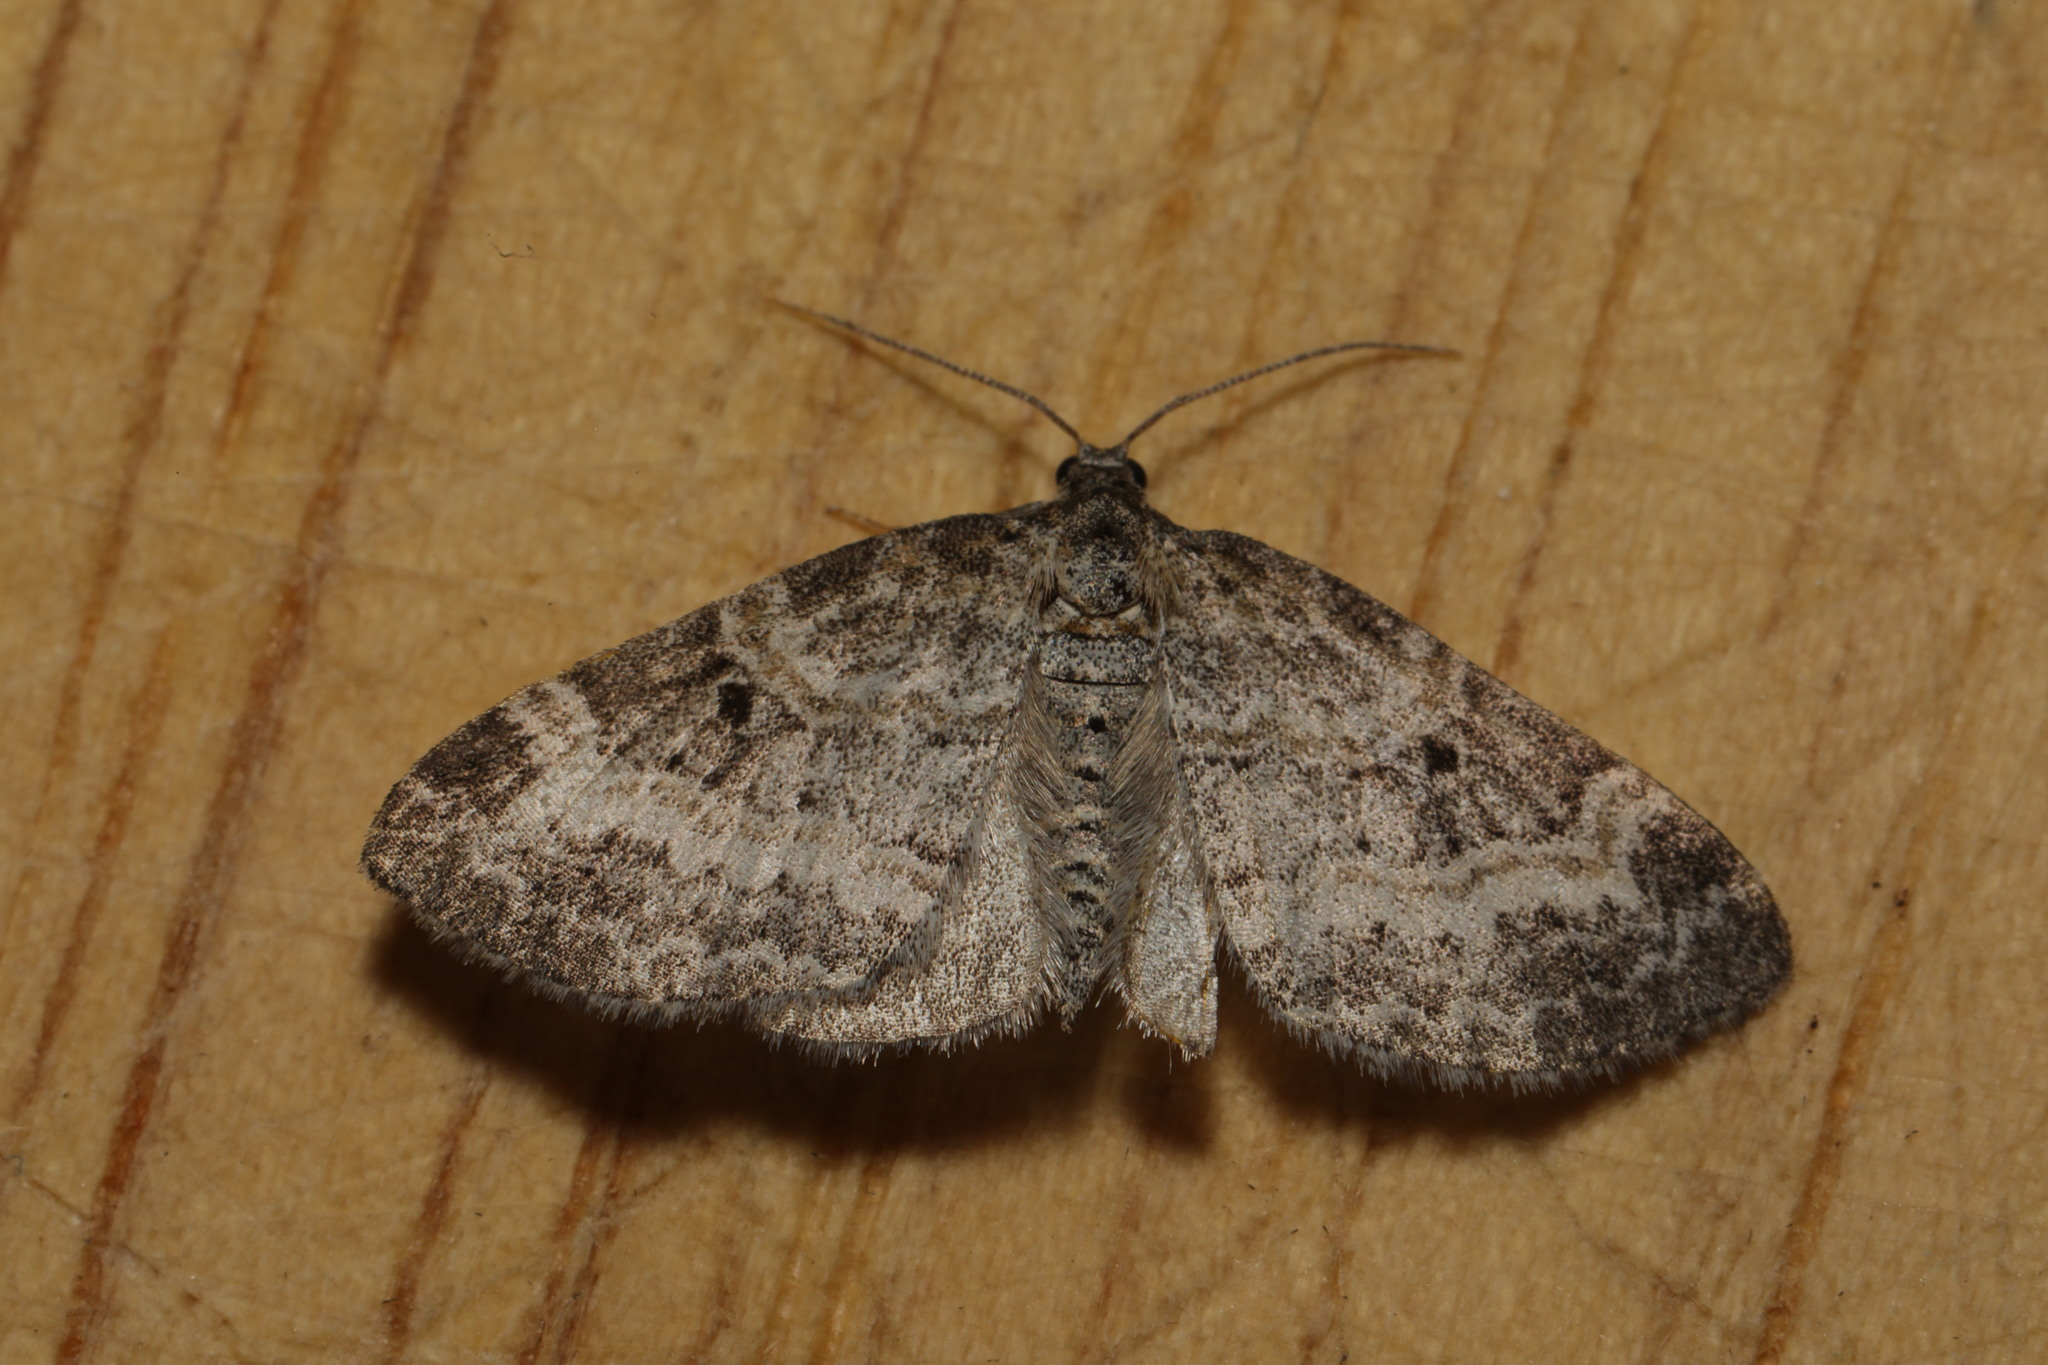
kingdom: Animalia
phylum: Arthropoda
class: Insecta
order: Lepidoptera
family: Geometridae
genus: Pterapherapteryx
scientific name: Pterapherapteryx sexalata
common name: Small seraphim
